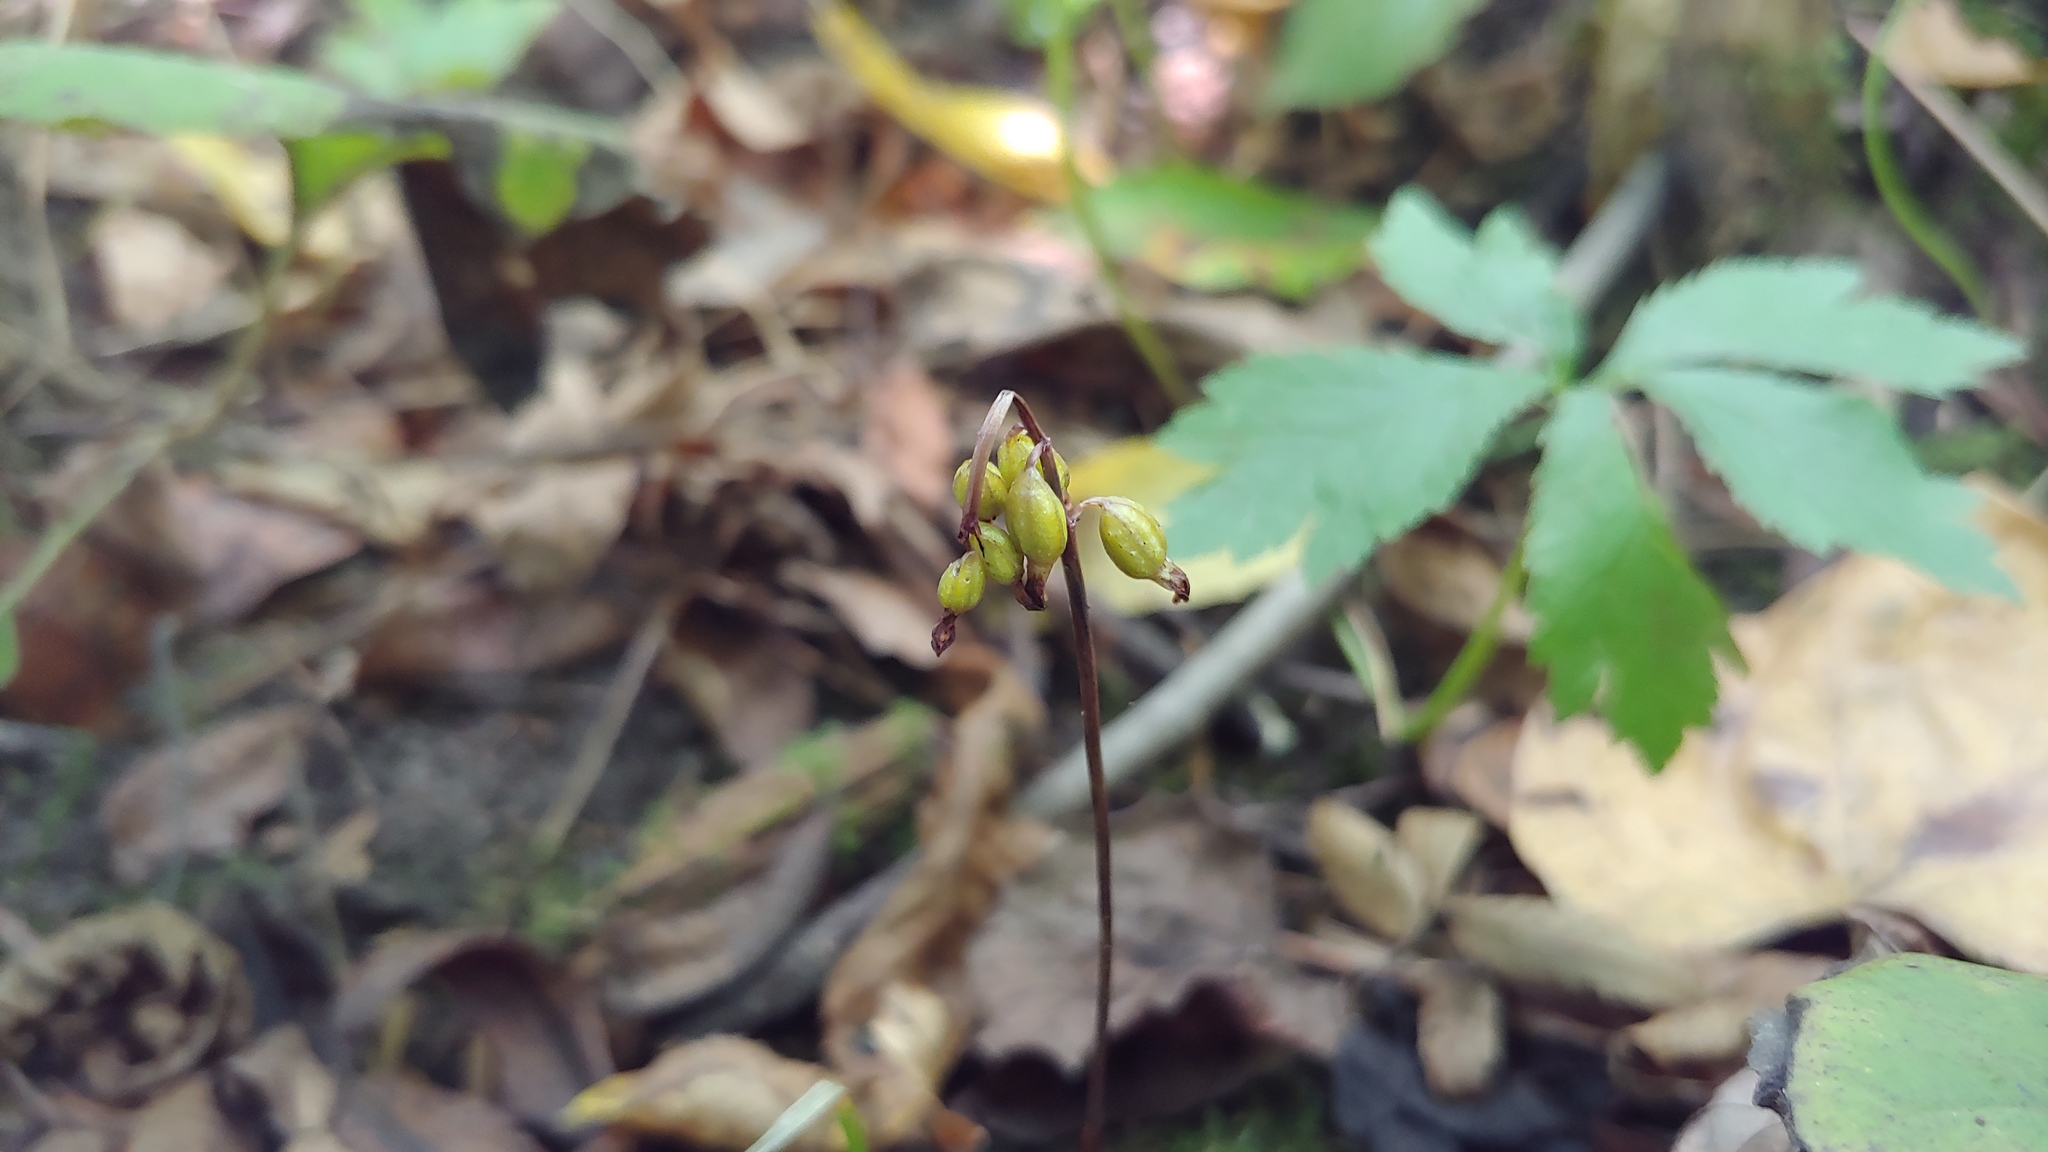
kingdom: Plantae
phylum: Tracheophyta
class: Liliopsida
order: Asparagales
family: Orchidaceae
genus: Corallorhiza
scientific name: Corallorhiza odontorhiza
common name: Autumn coralroot
